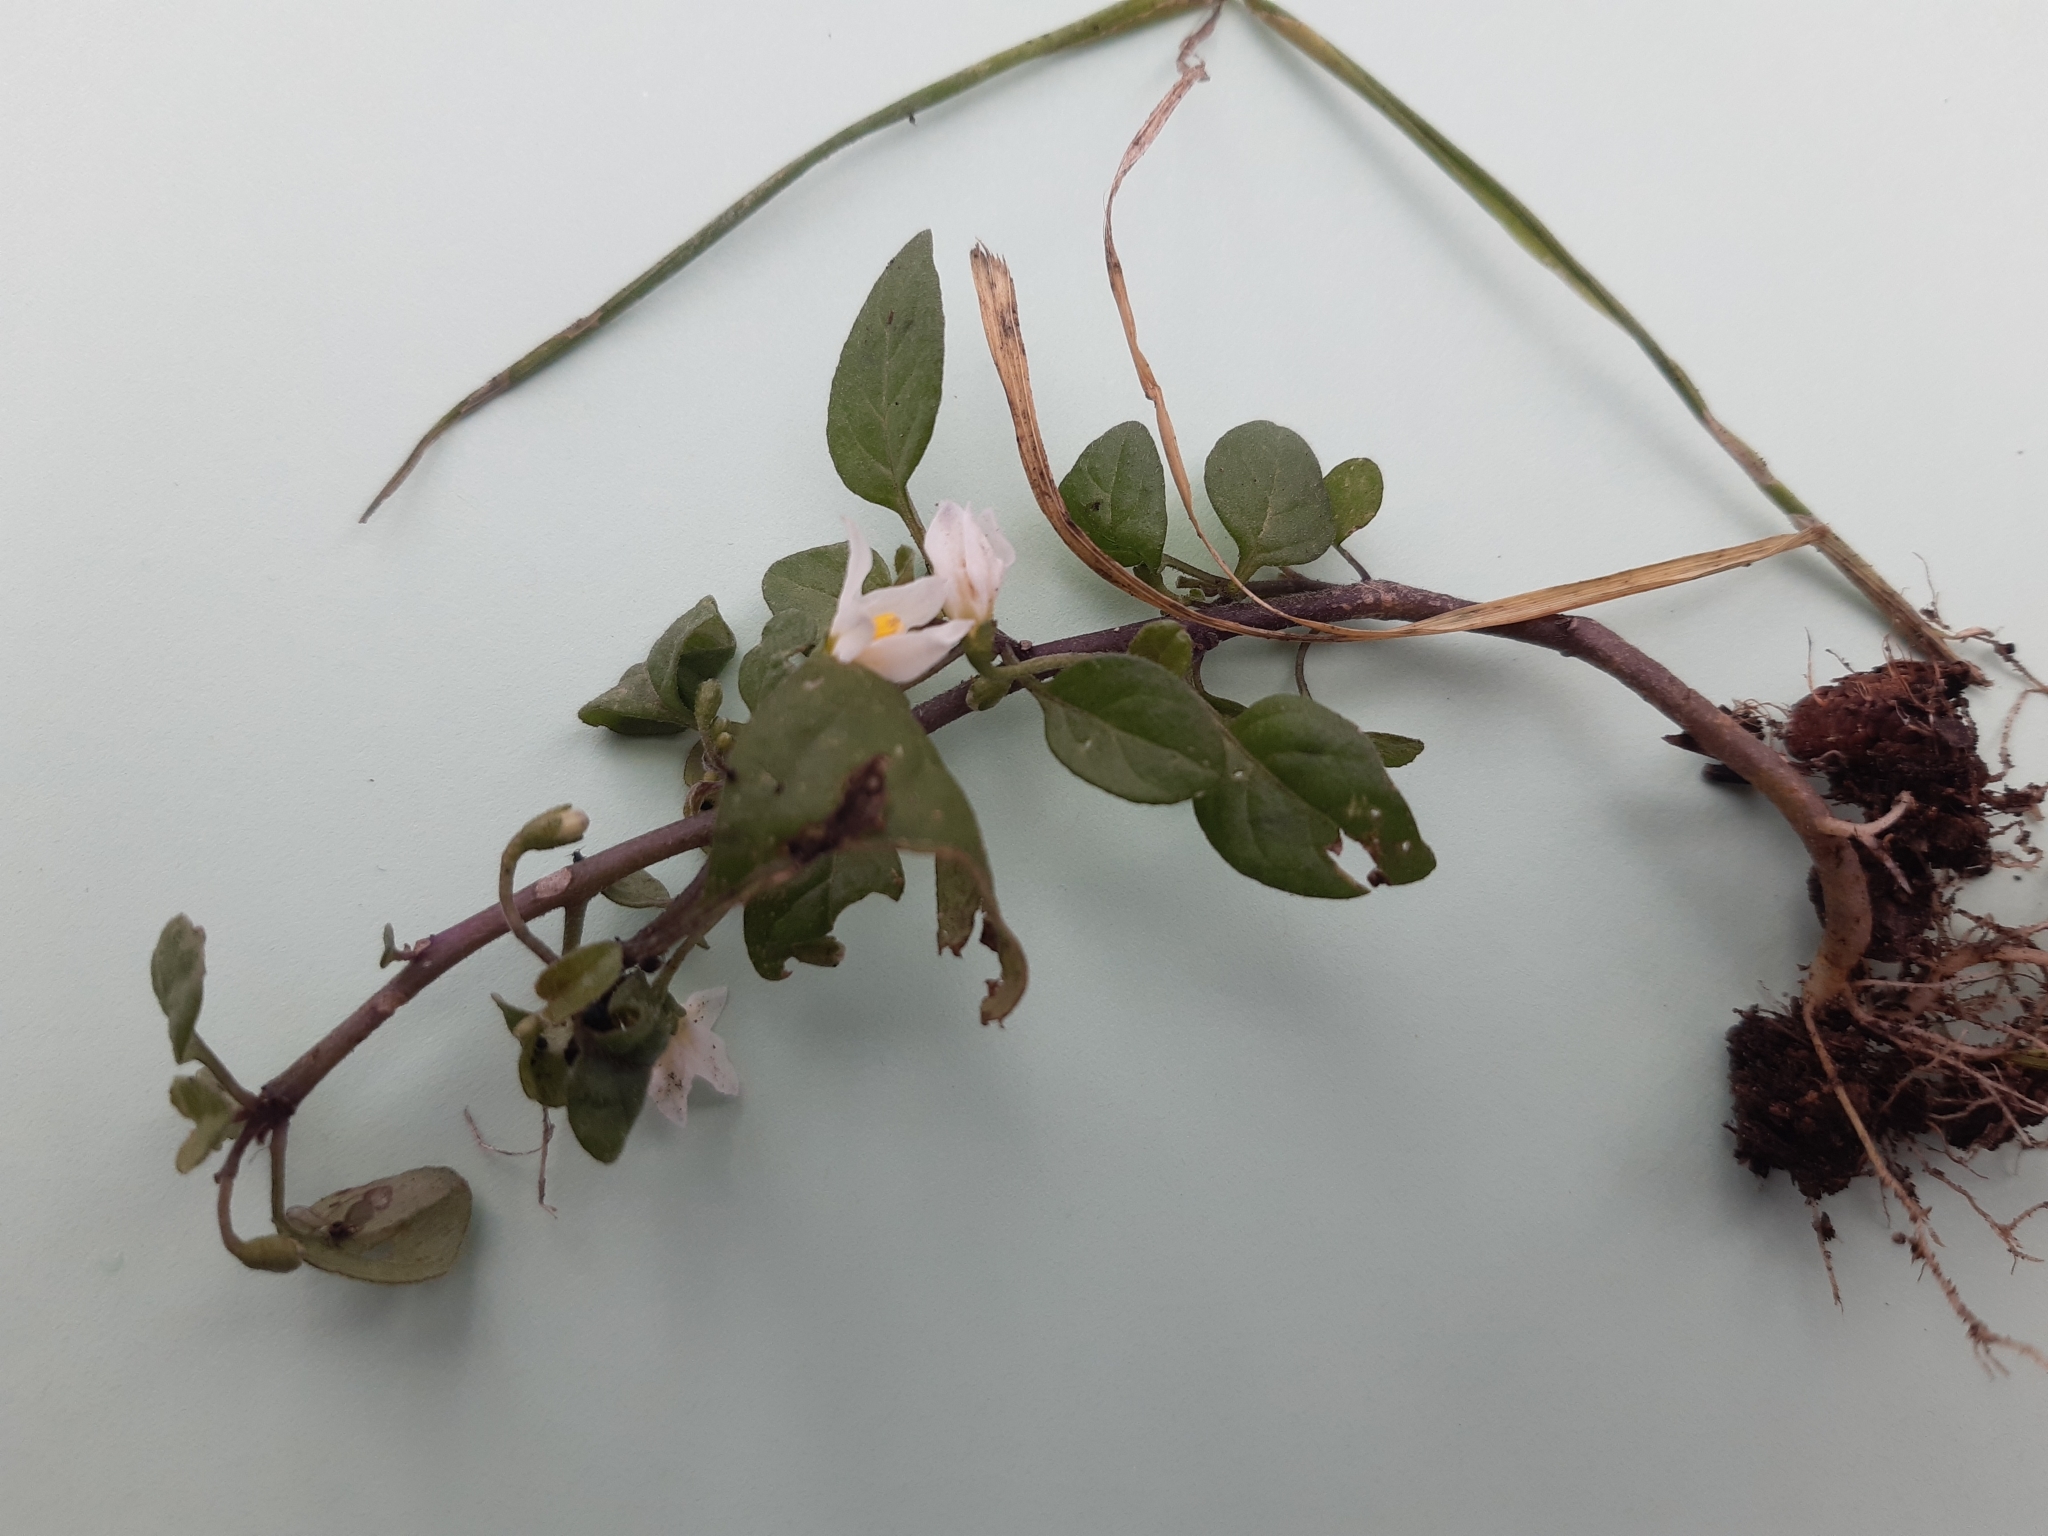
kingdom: Plantae
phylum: Tracheophyta
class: Magnoliopsida
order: Solanales
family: Solanaceae
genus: Solanum
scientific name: Solanum nigrum
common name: Black nightshade
